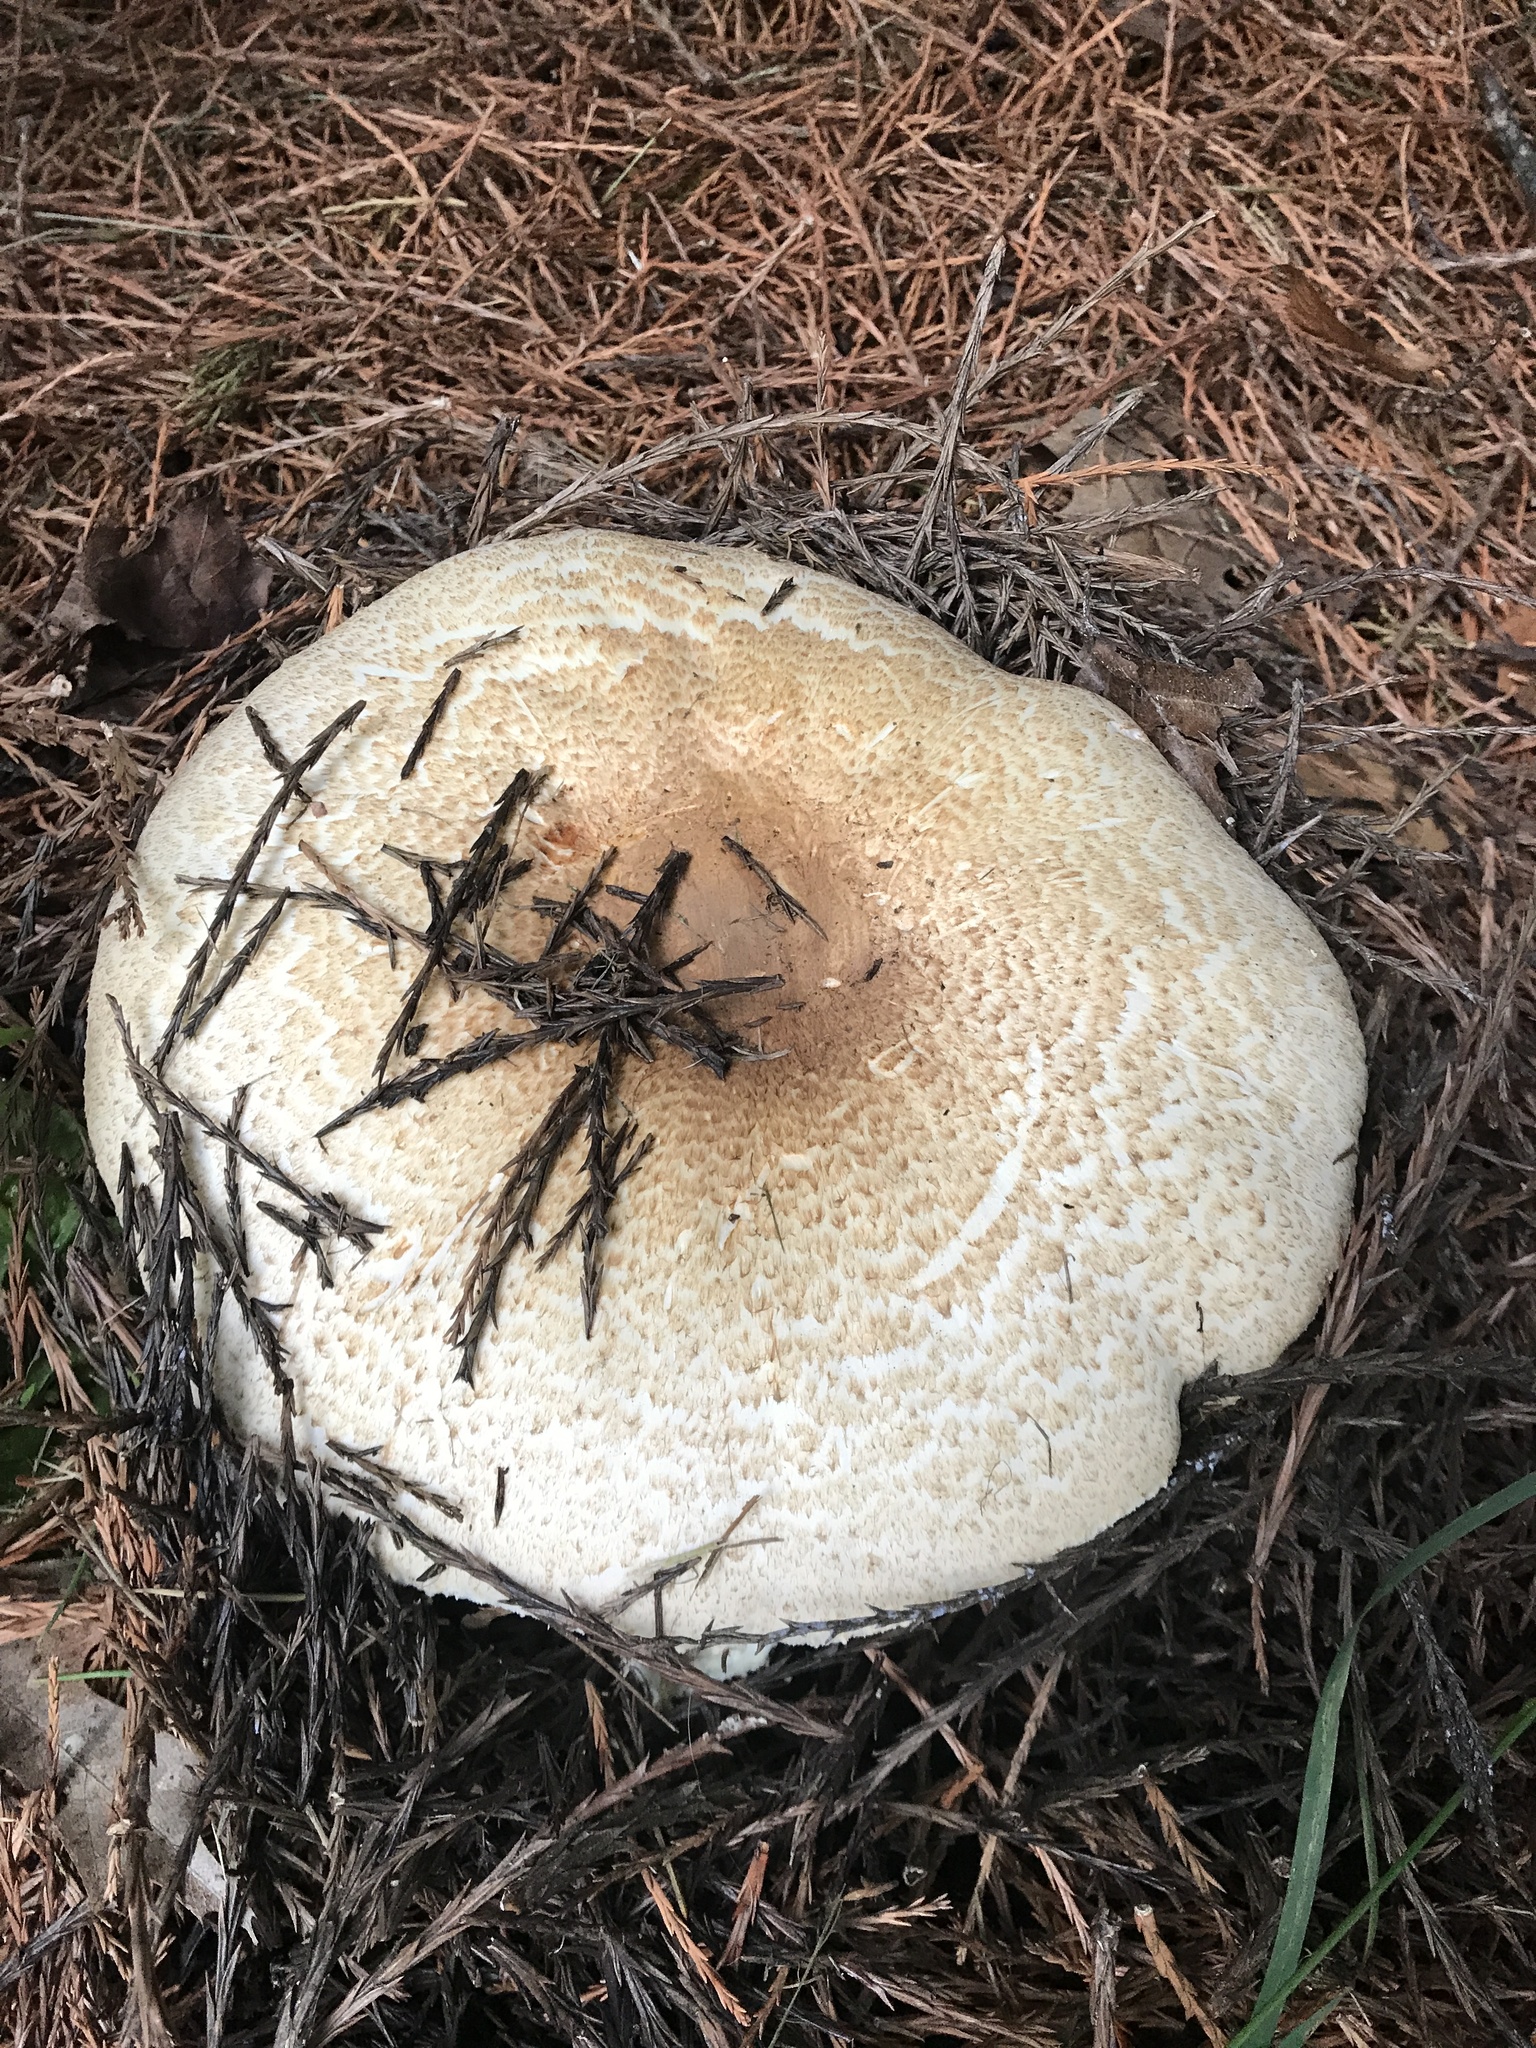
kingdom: Fungi
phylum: Basidiomycota
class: Agaricomycetes
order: Agaricales
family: Agaricaceae
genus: Agaricus
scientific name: Agaricus augustus
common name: Prince
